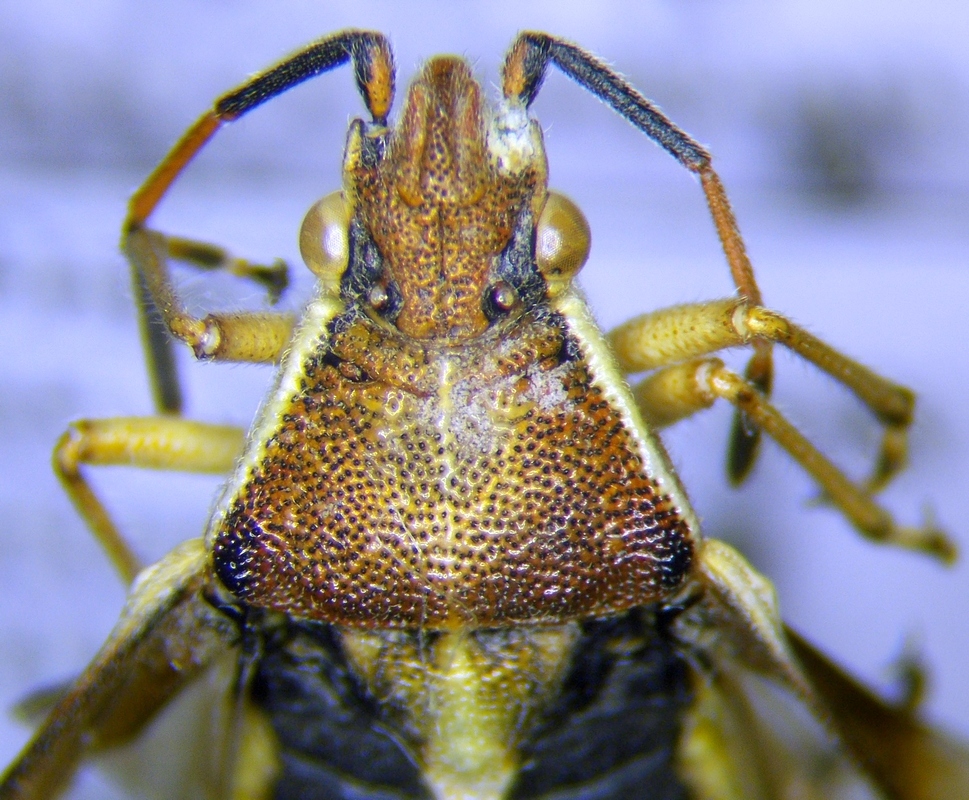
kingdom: Animalia
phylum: Arthropoda
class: Insecta
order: Hemiptera
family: Rhopalidae
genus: Maccevethus
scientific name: Maccevethus corsicus
